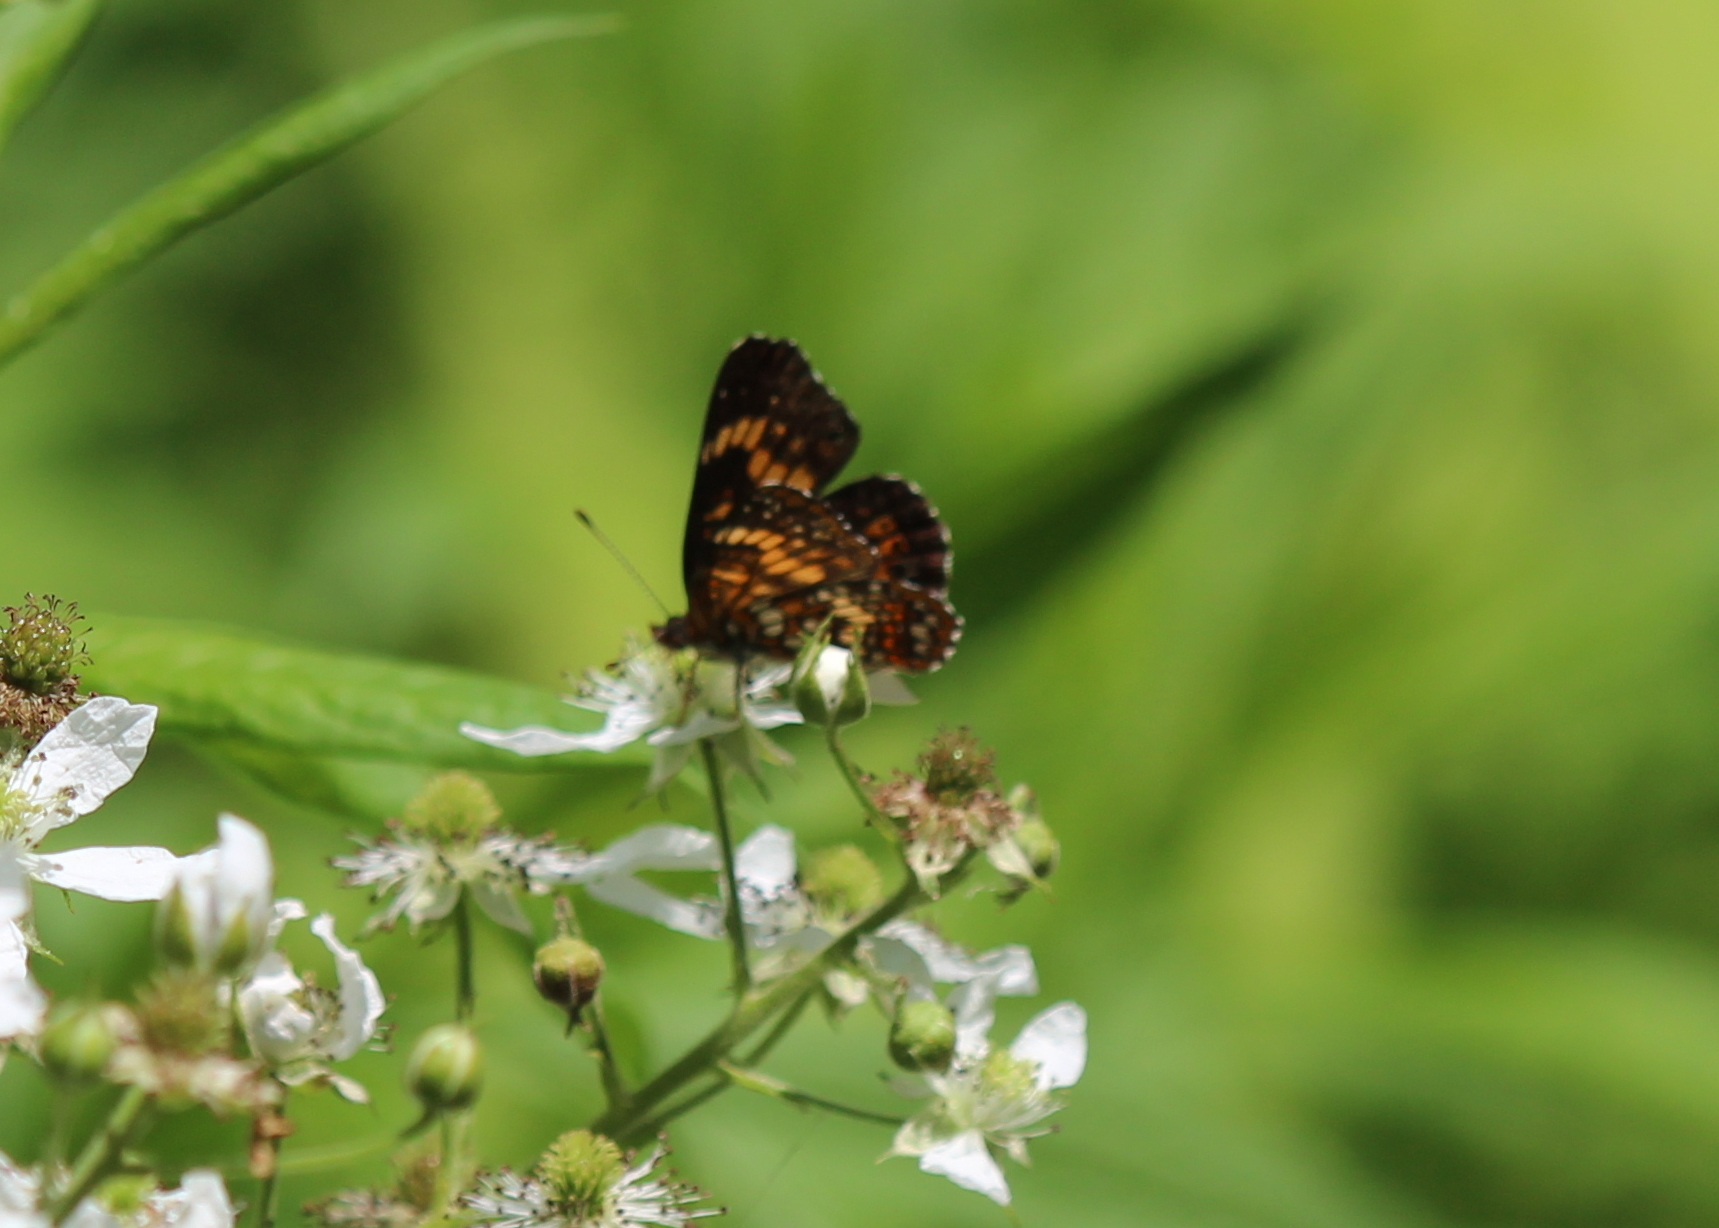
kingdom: Animalia
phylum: Arthropoda
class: Insecta
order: Lepidoptera
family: Nymphalidae
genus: Chlosyne
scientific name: Chlosyne harrisii
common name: Harris's checkerspot
